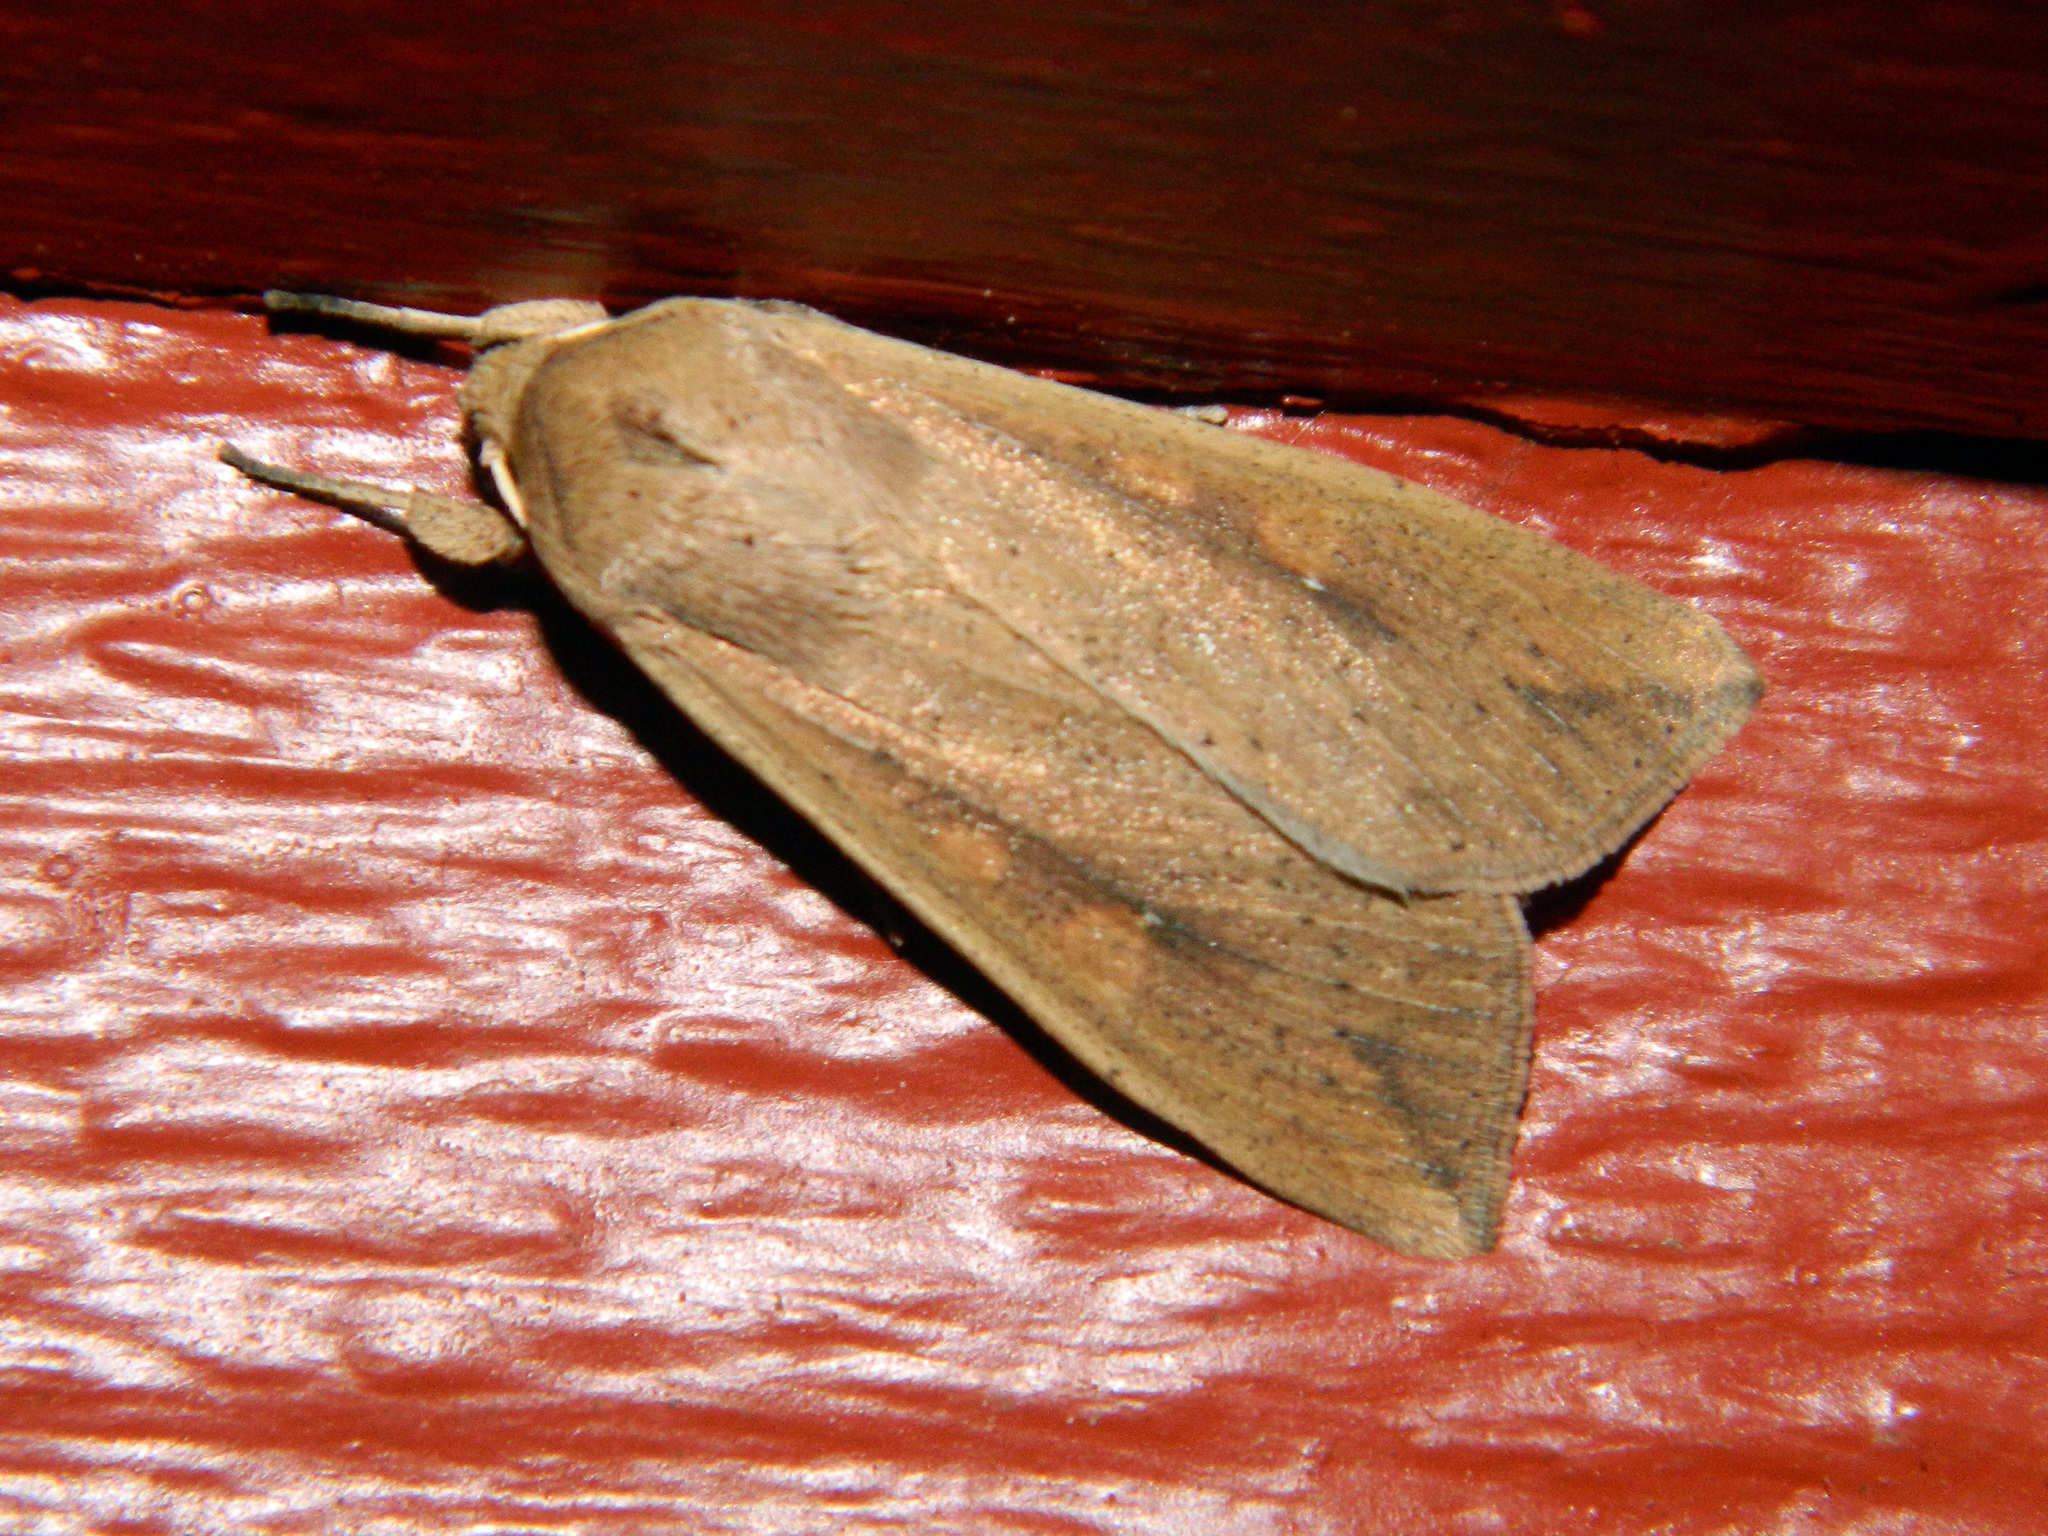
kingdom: Animalia
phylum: Arthropoda
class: Insecta
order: Lepidoptera
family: Noctuidae
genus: Mythimna
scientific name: Mythimna unipuncta
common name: White-speck
